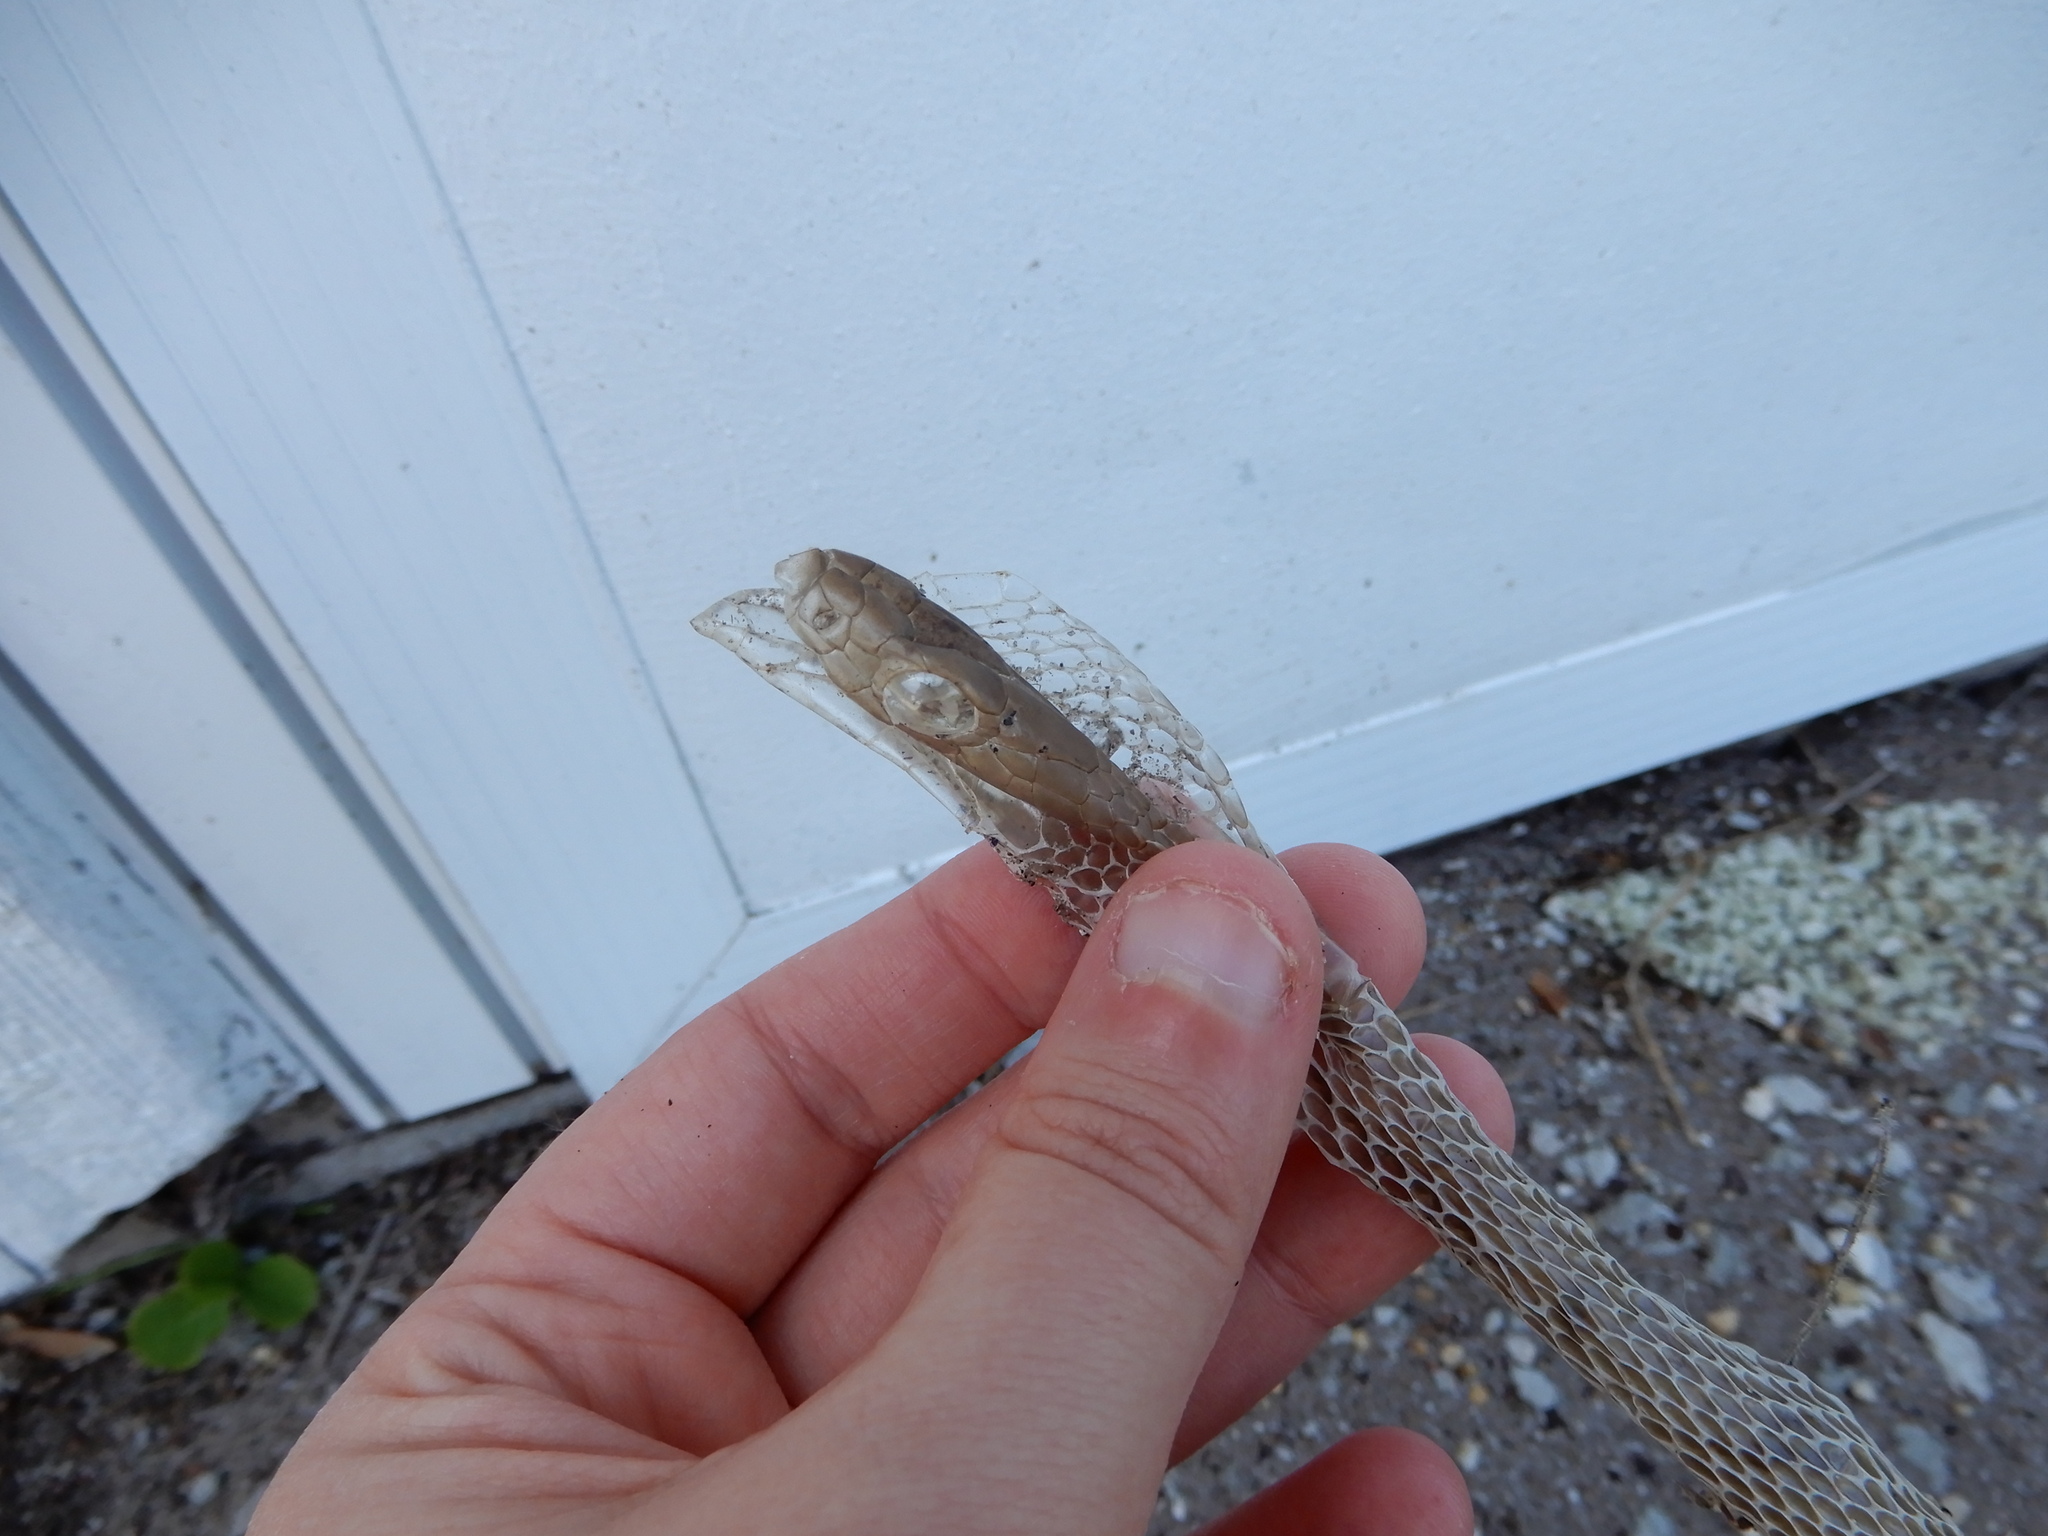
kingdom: Animalia
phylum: Chordata
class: Squamata
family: Colubridae
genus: Coluber
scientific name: Coluber constrictor
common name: Eastern racer
